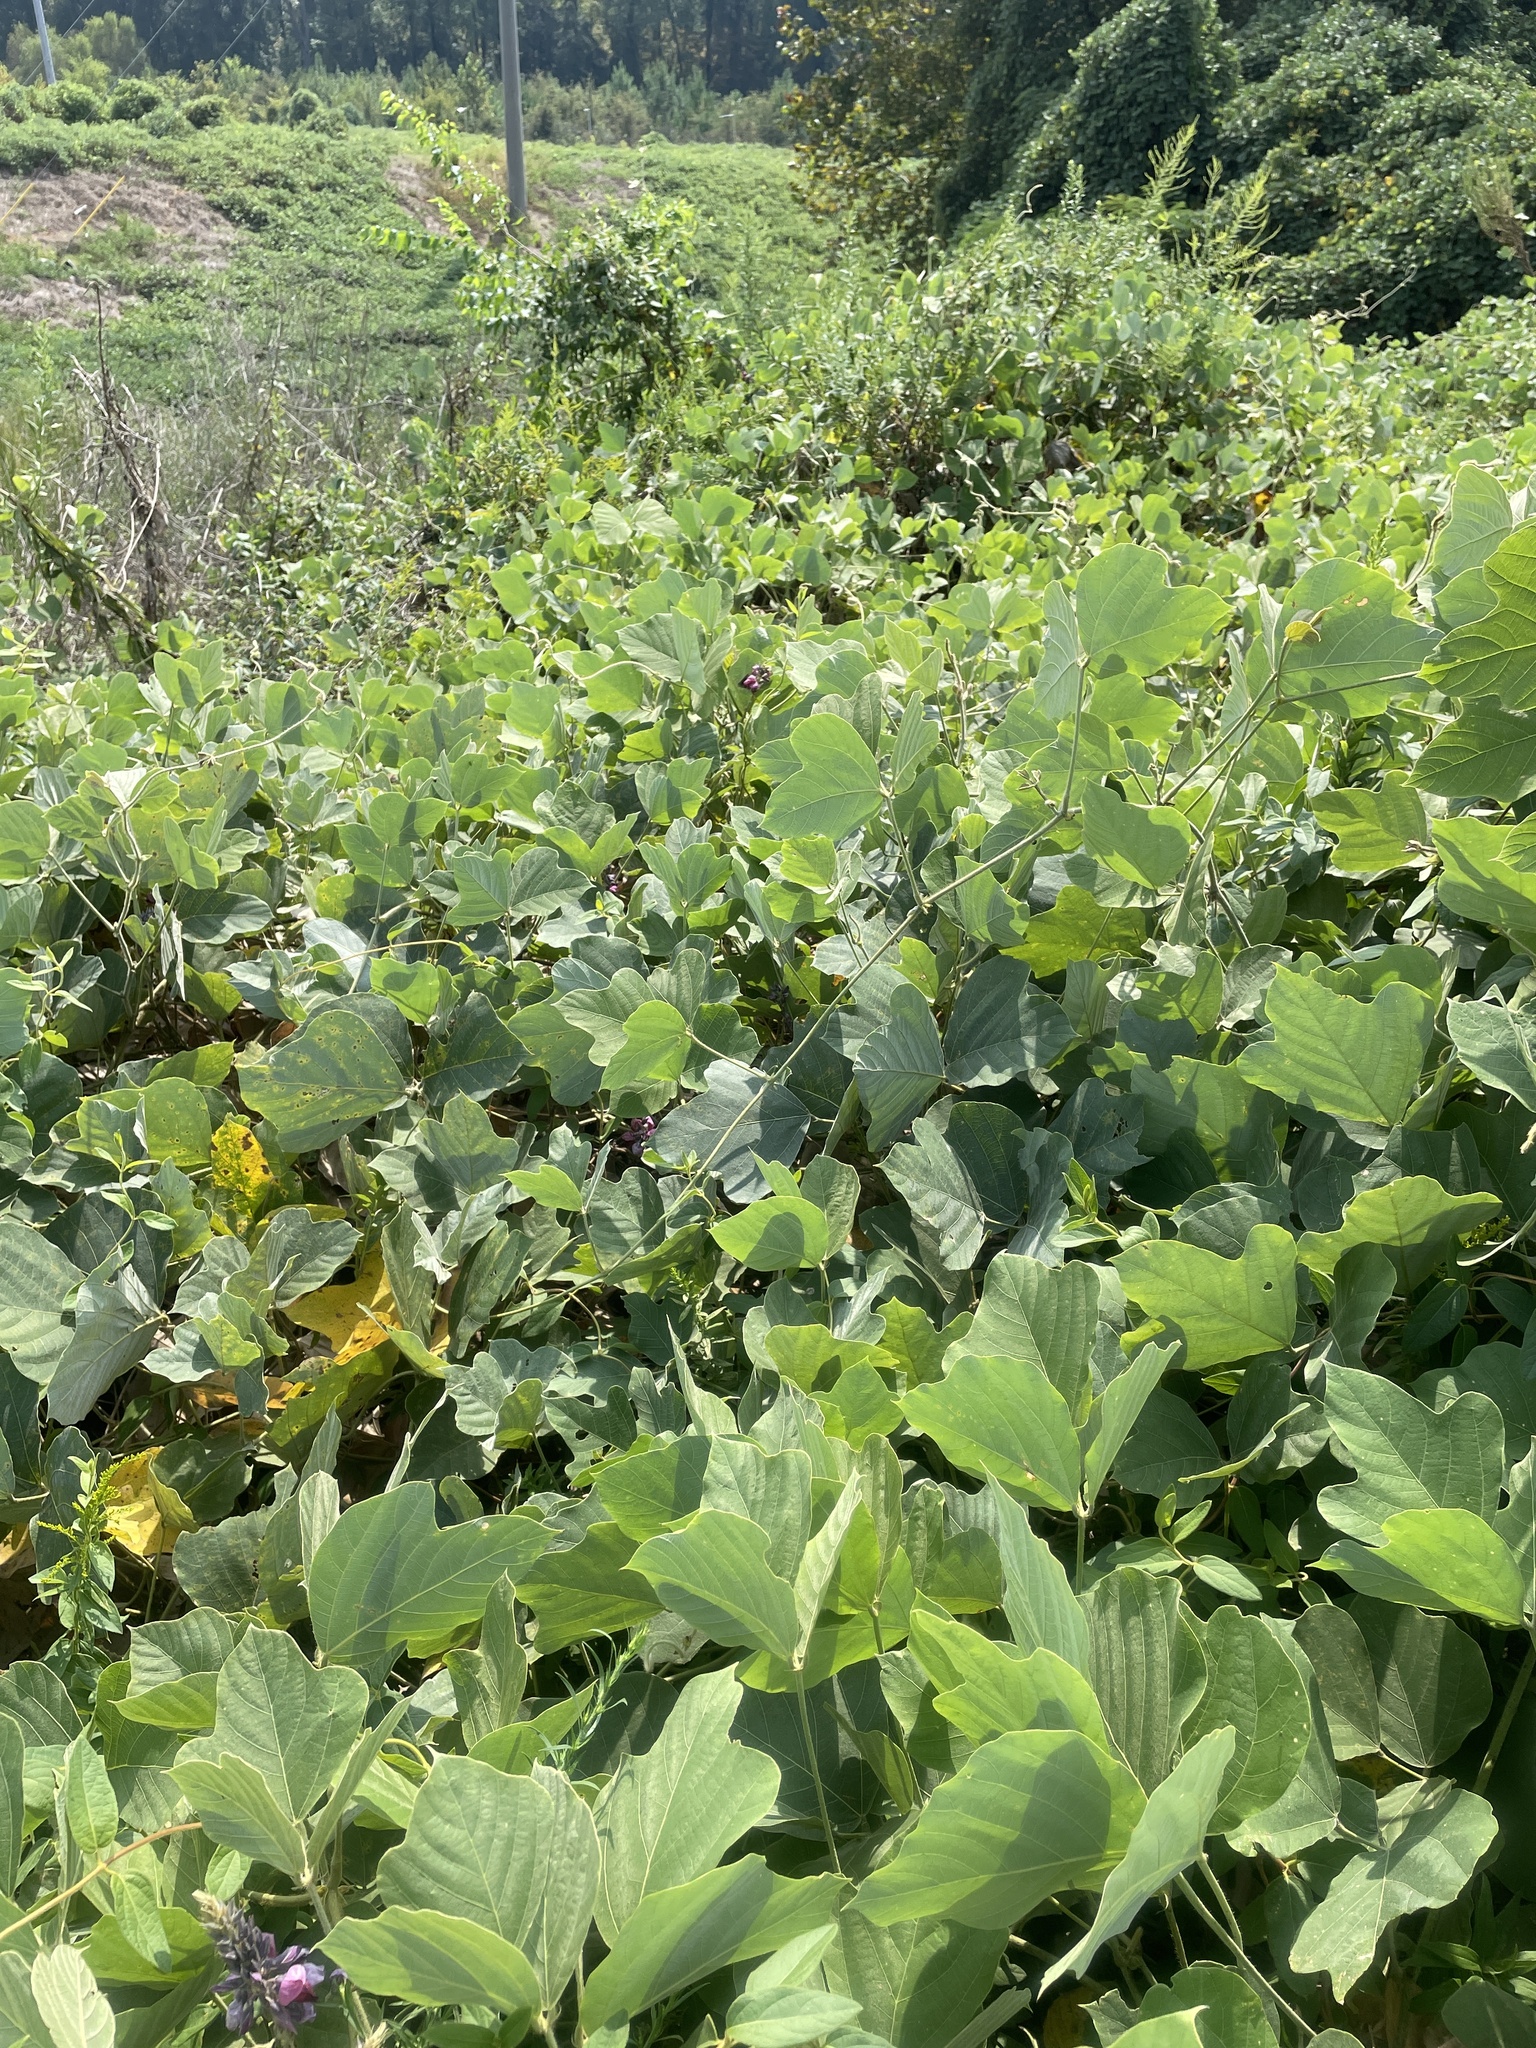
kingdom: Plantae
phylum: Tracheophyta
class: Magnoliopsida
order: Fabales
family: Fabaceae
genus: Pueraria
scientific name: Pueraria montana
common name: Kudzu
